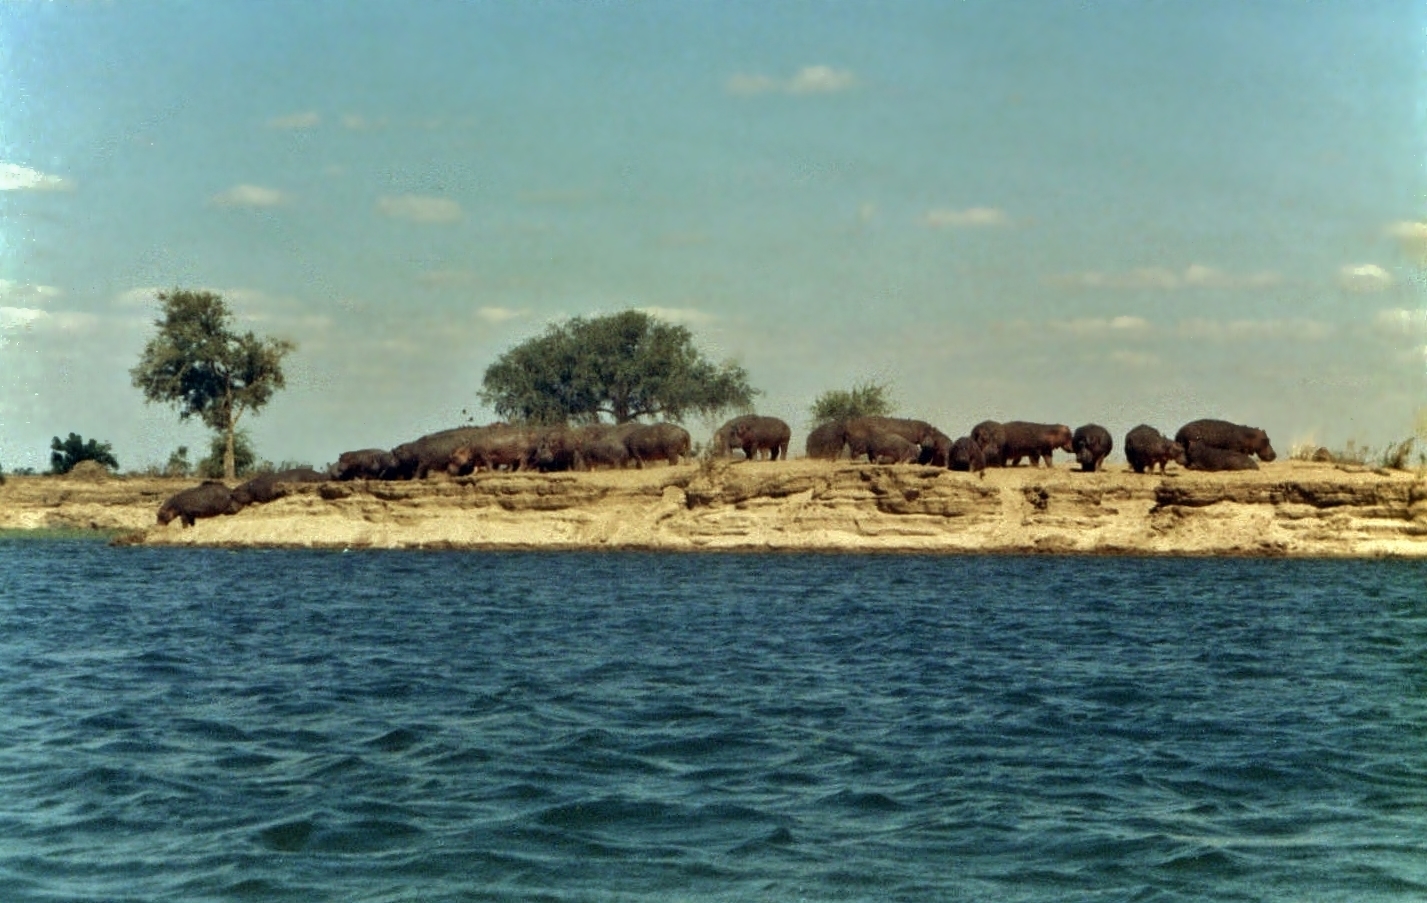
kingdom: Animalia
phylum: Chordata
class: Mammalia
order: Artiodactyla
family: Hippopotamidae
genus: Hippopotamus
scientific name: Hippopotamus amphibius
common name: Common hippopotamus
